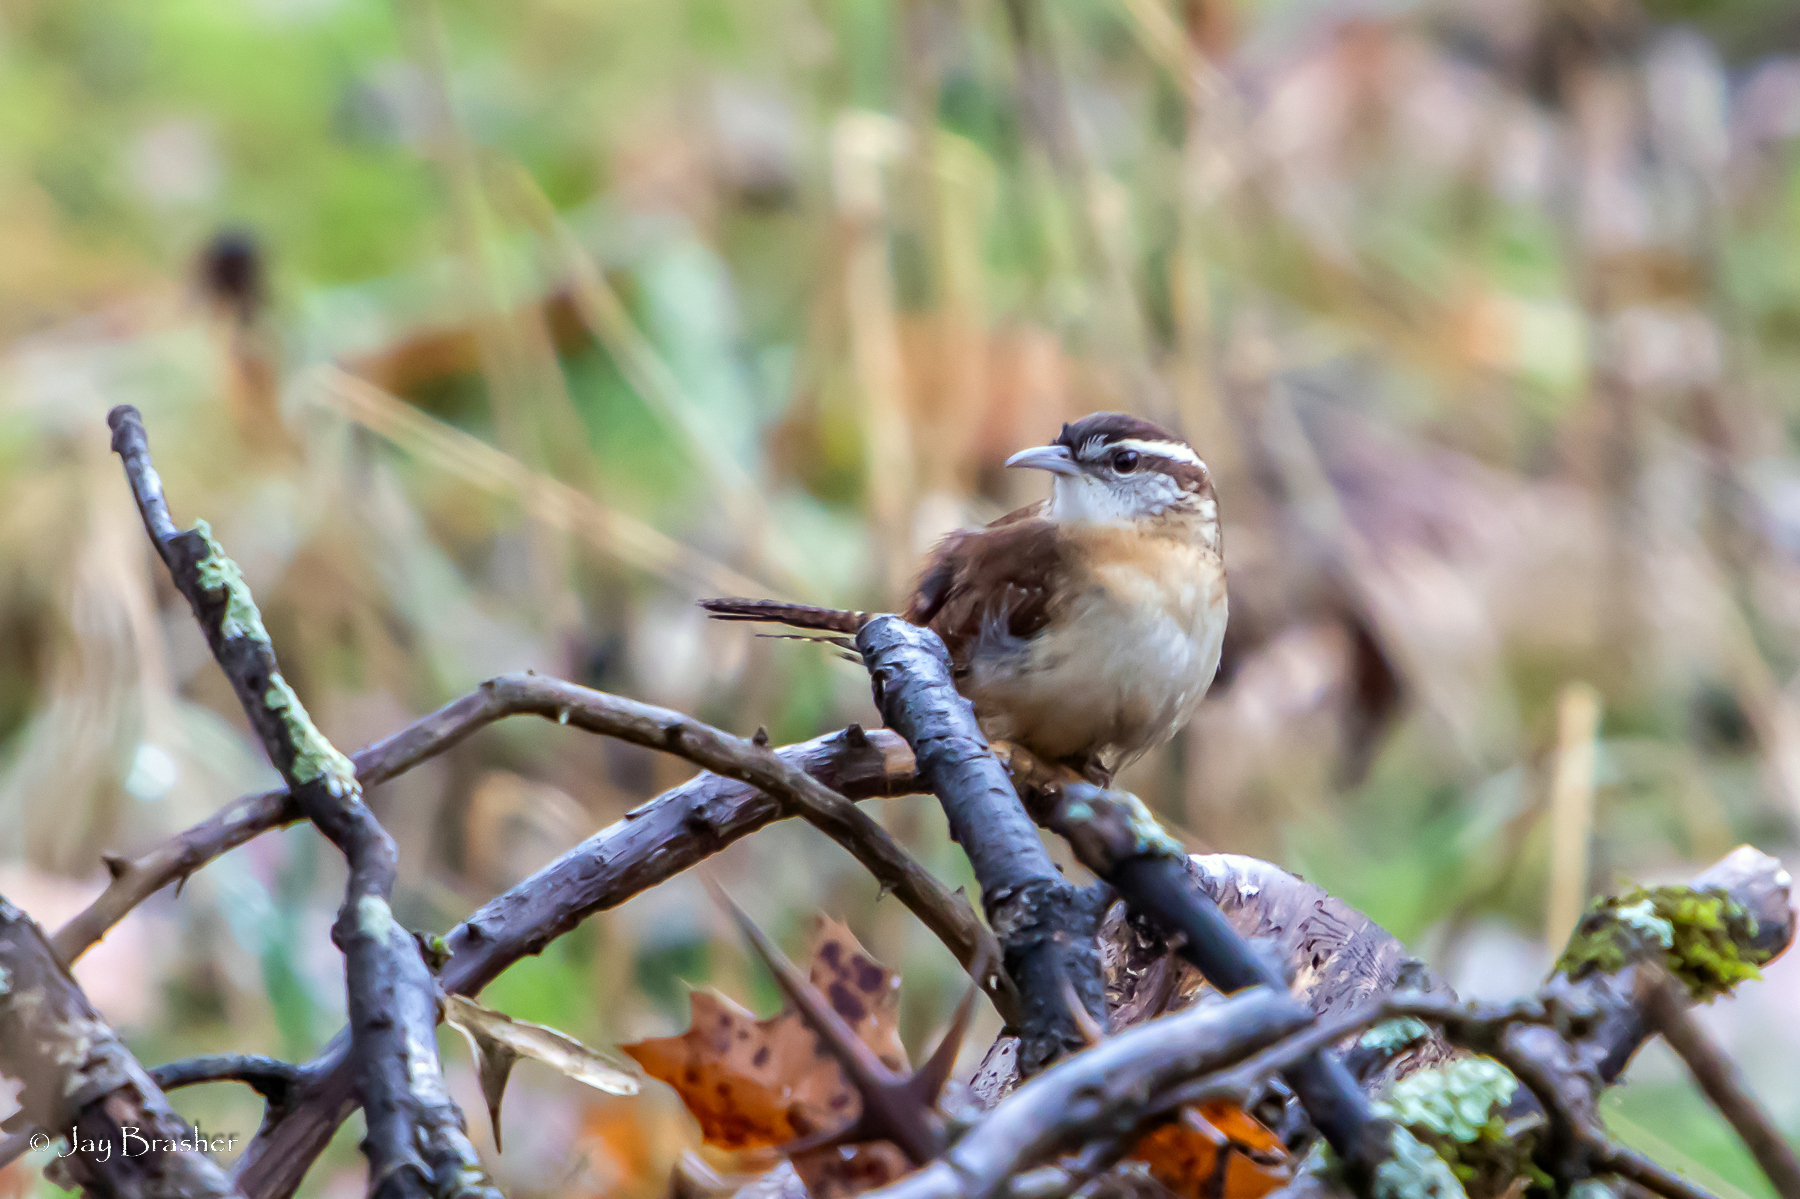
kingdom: Animalia
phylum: Chordata
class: Aves
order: Passeriformes
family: Troglodytidae
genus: Thryothorus
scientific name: Thryothorus ludovicianus
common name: Carolina wren
